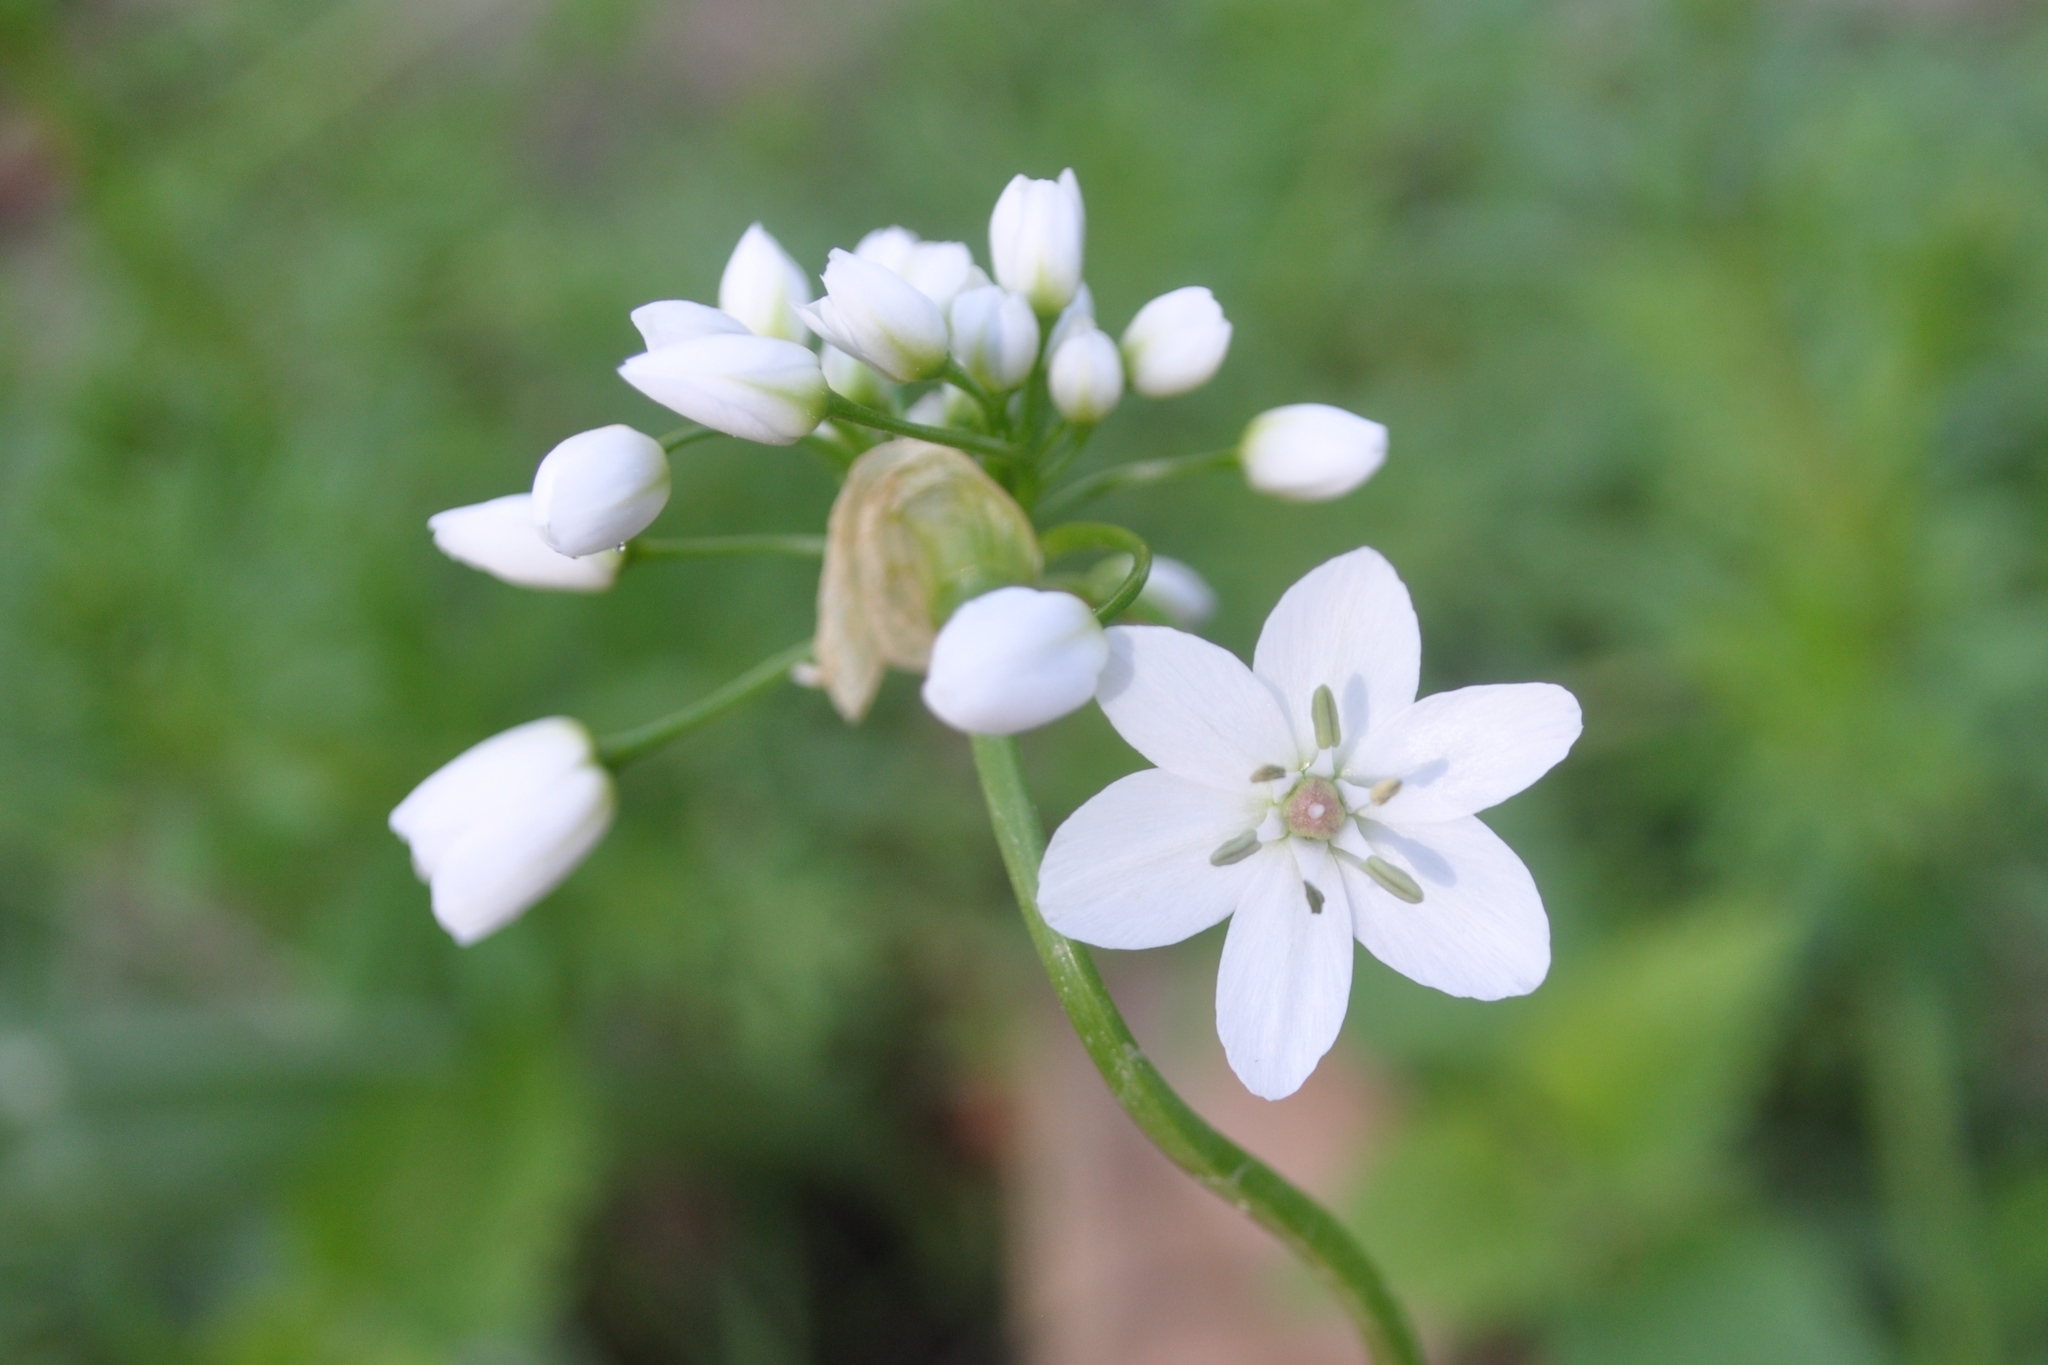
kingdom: Plantae
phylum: Tracheophyta
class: Liliopsida
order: Asparagales
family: Amaryllidaceae
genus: Allium
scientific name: Allium neapolitanum
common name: Neapolitan garlic
